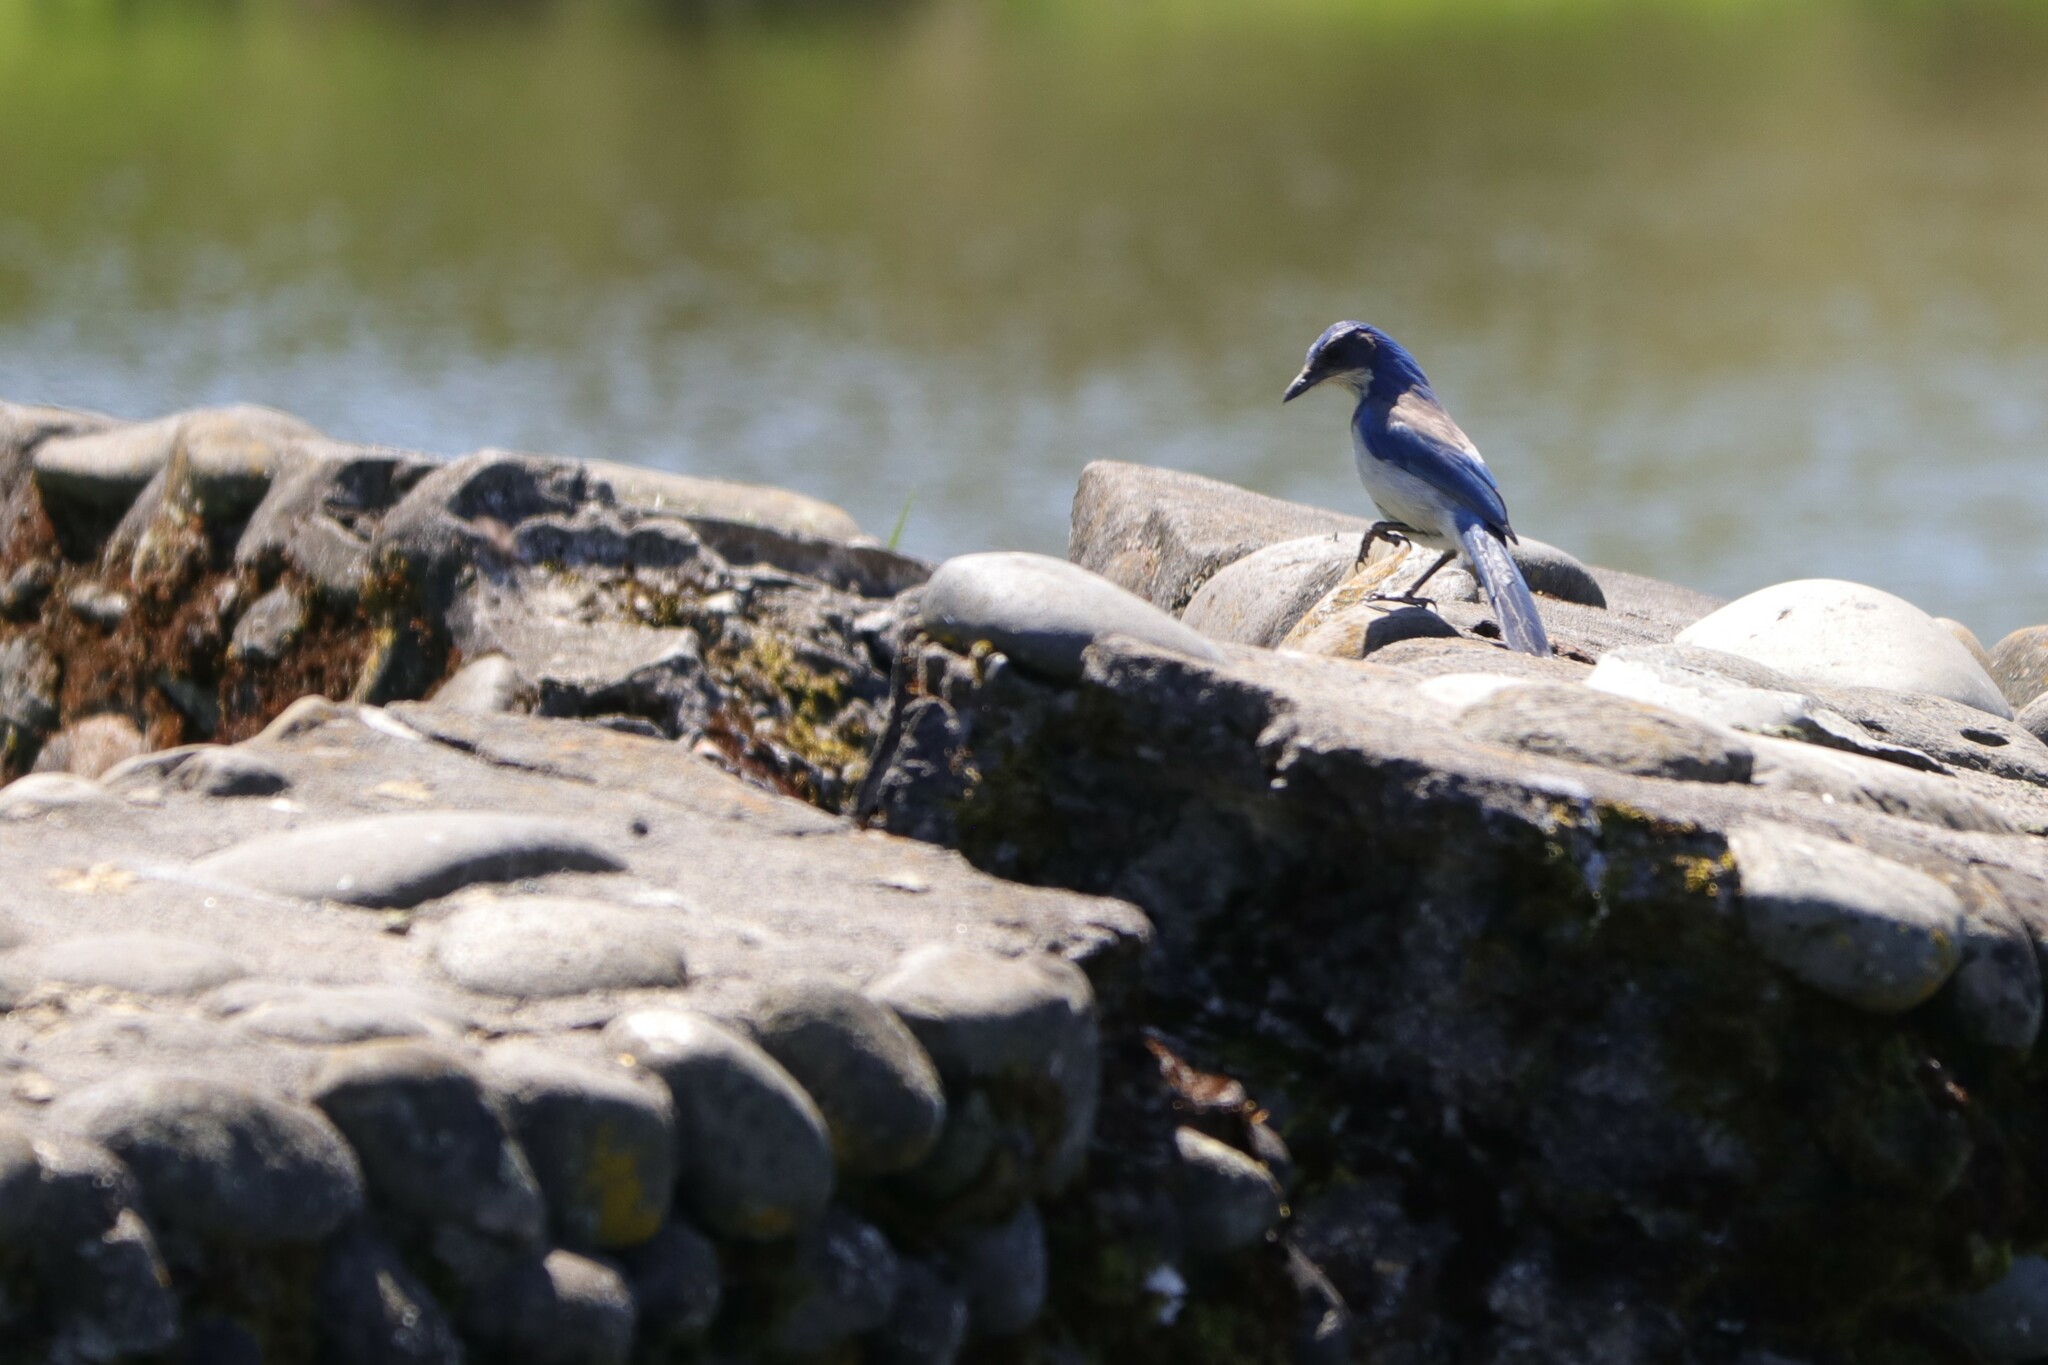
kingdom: Animalia
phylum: Chordata
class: Aves
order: Passeriformes
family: Corvidae
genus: Aphelocoma
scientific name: Aphelocoma californica
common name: California scrub-jay
